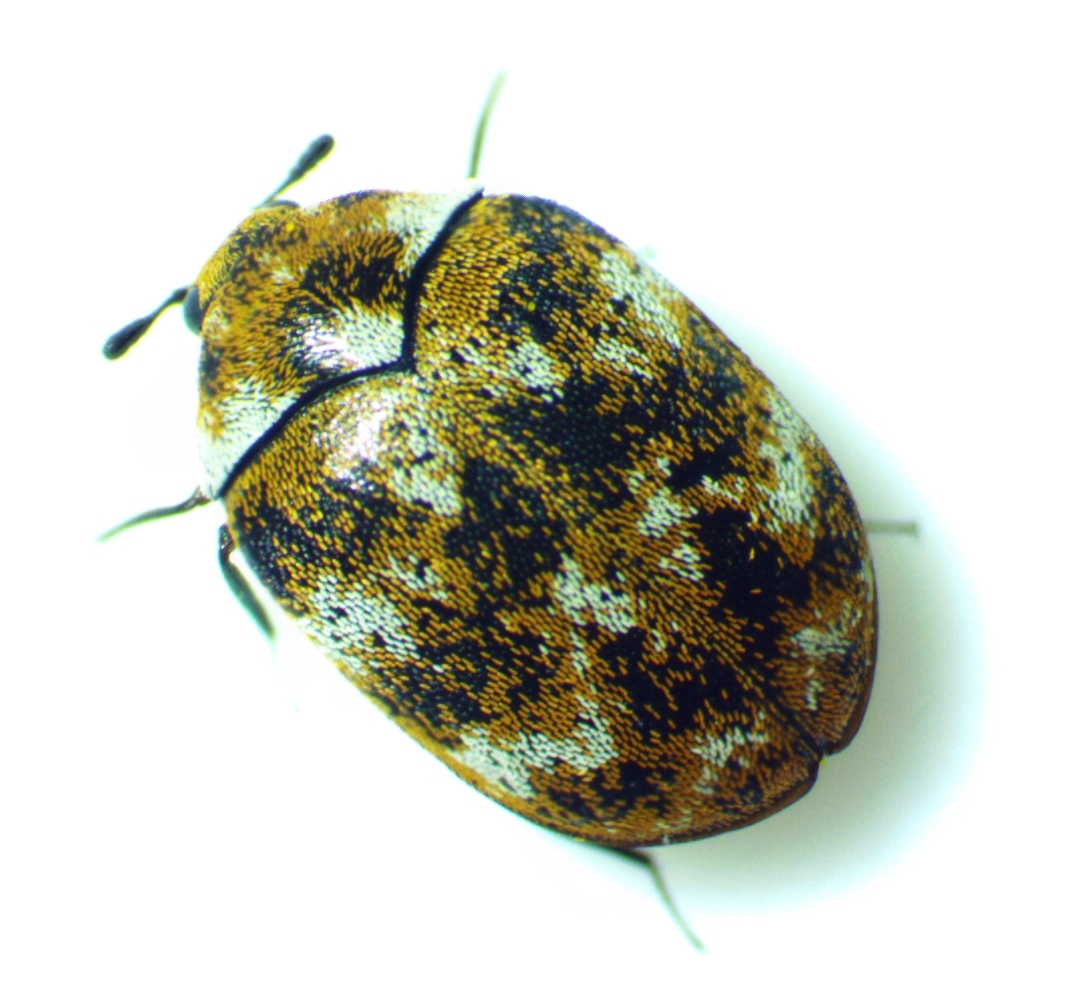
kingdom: Animalia
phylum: Arthropoda
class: Insecta
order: Coleoptera
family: Dermestidae
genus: Anthrenus
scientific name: Anthrenus verbasci
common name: Varied carpet beetle
